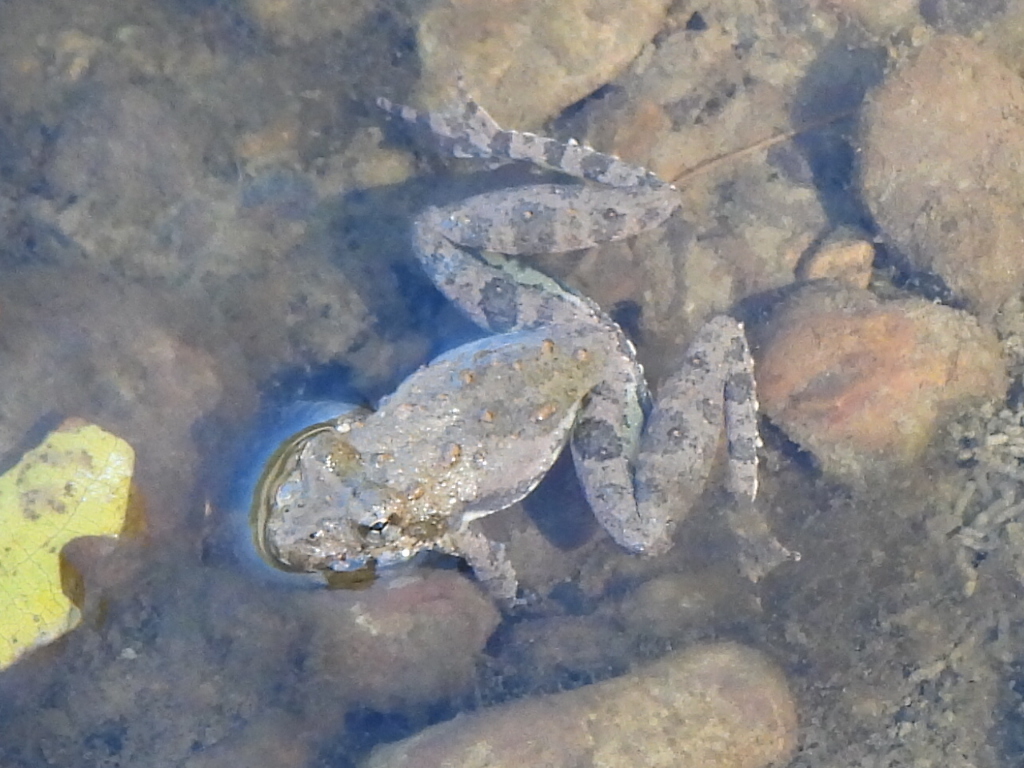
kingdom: Animalia
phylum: Chordata
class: Amphibia
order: Anura
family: Hylidae
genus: Acris
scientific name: Acris blanchardi
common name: Blanchard's cricket frog
